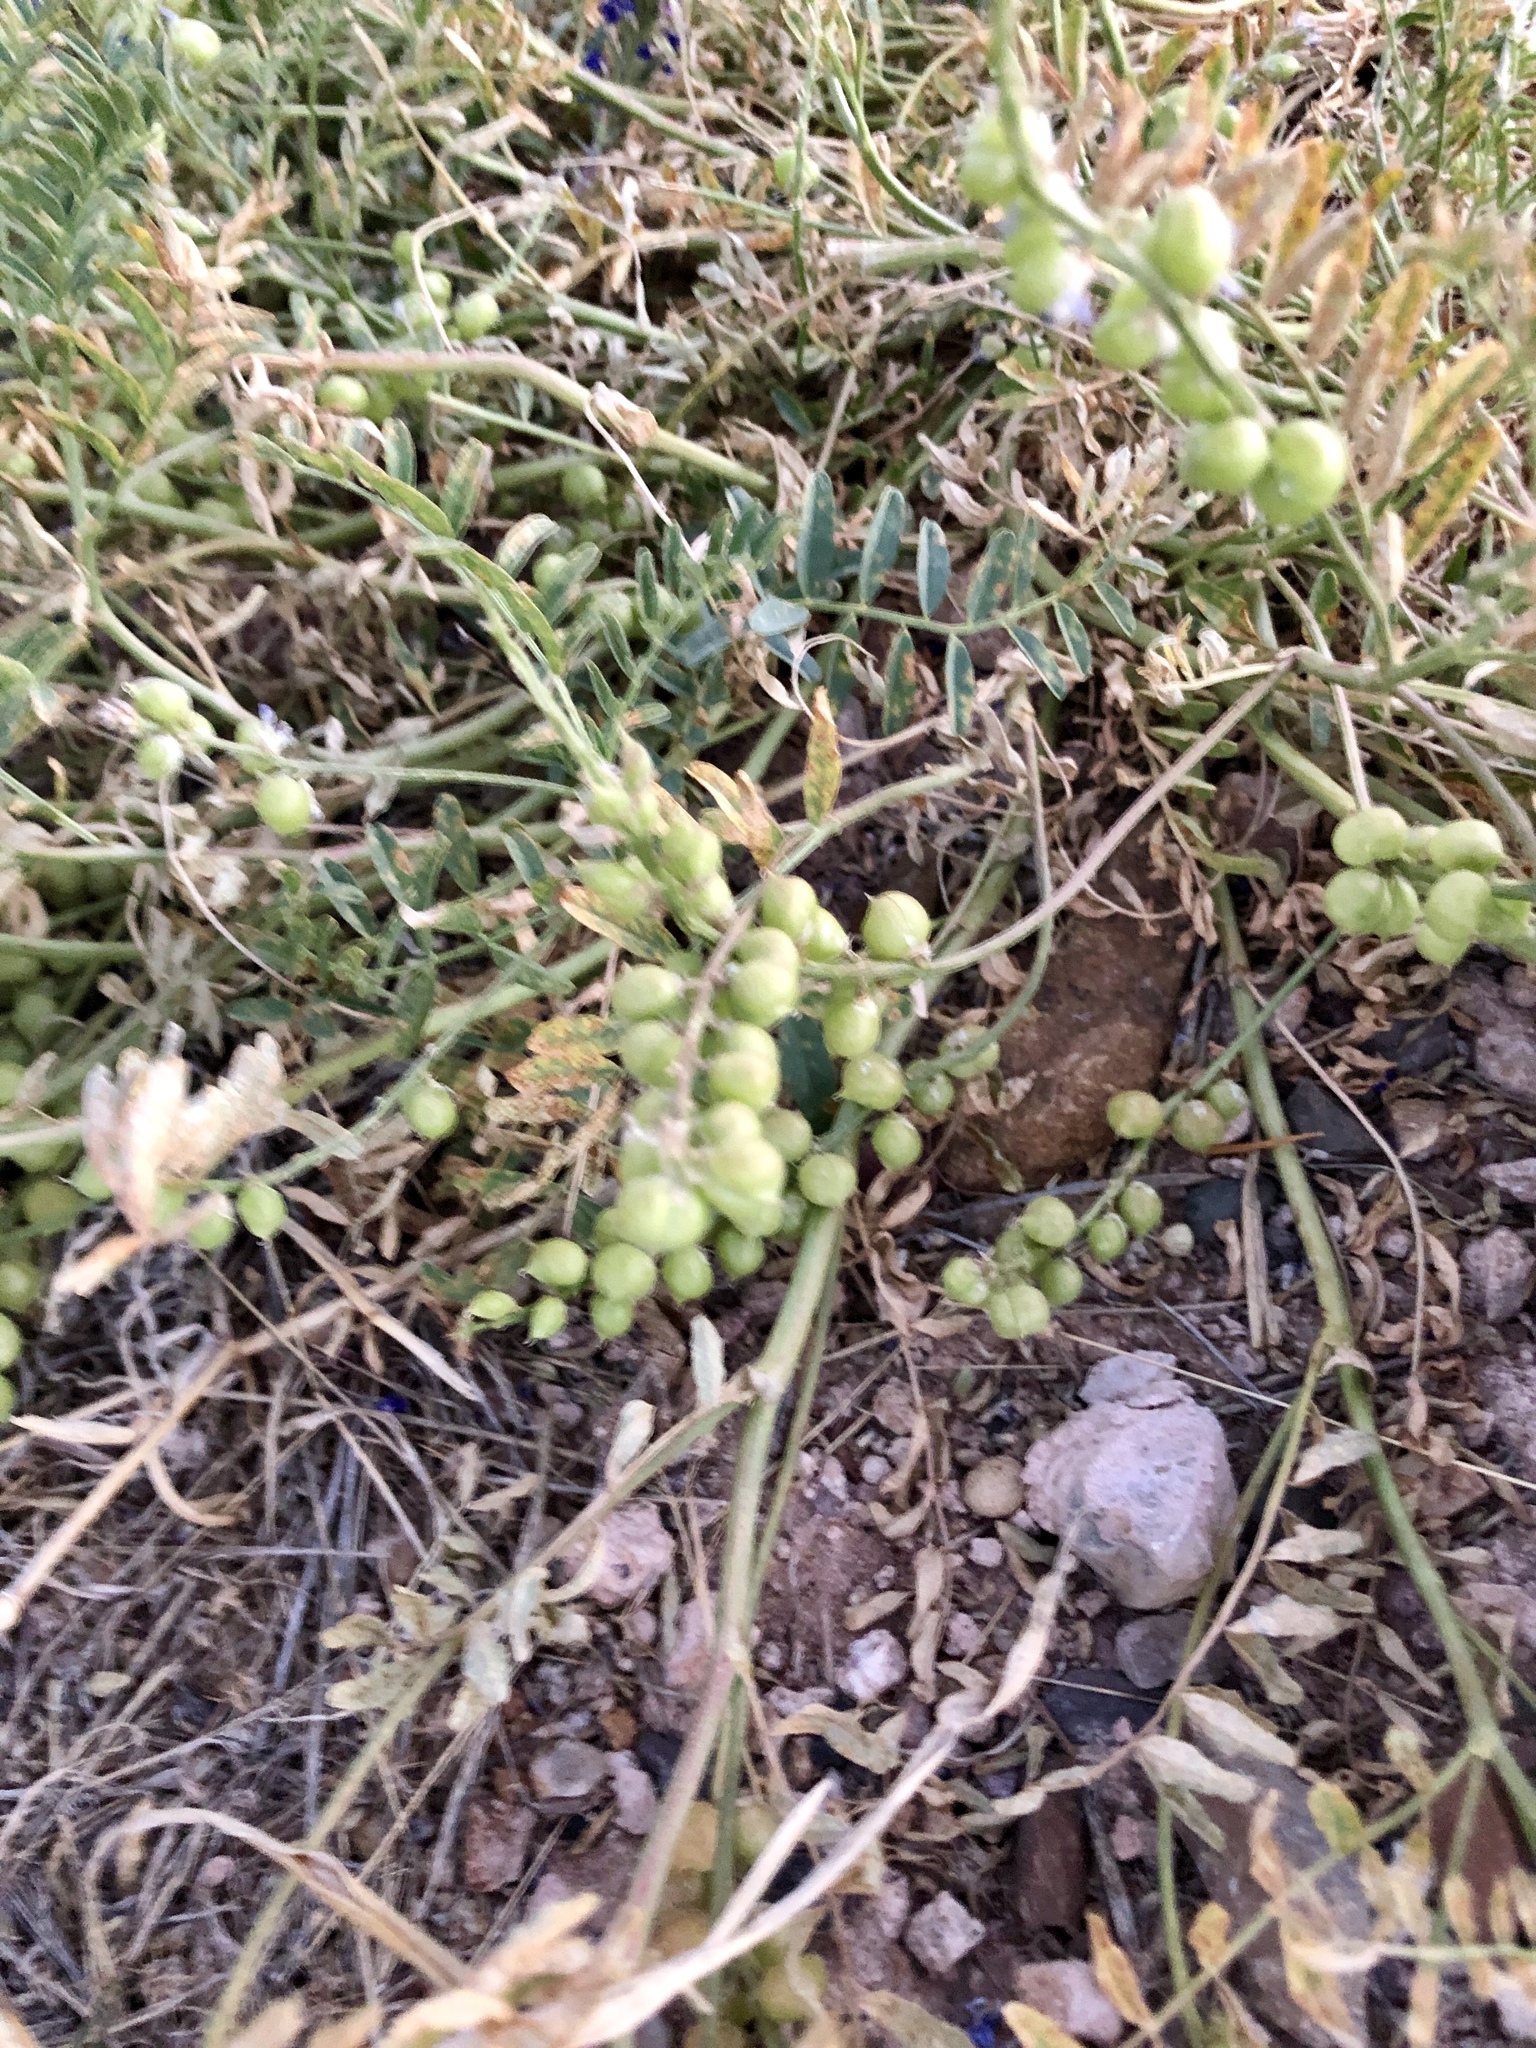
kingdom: Plantae
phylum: Tracheophyta
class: Magnoliopsida
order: Fabales
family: Fabaceae
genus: Astragalus
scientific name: Astragalus thurberi
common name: Thurber's milk-vetch
